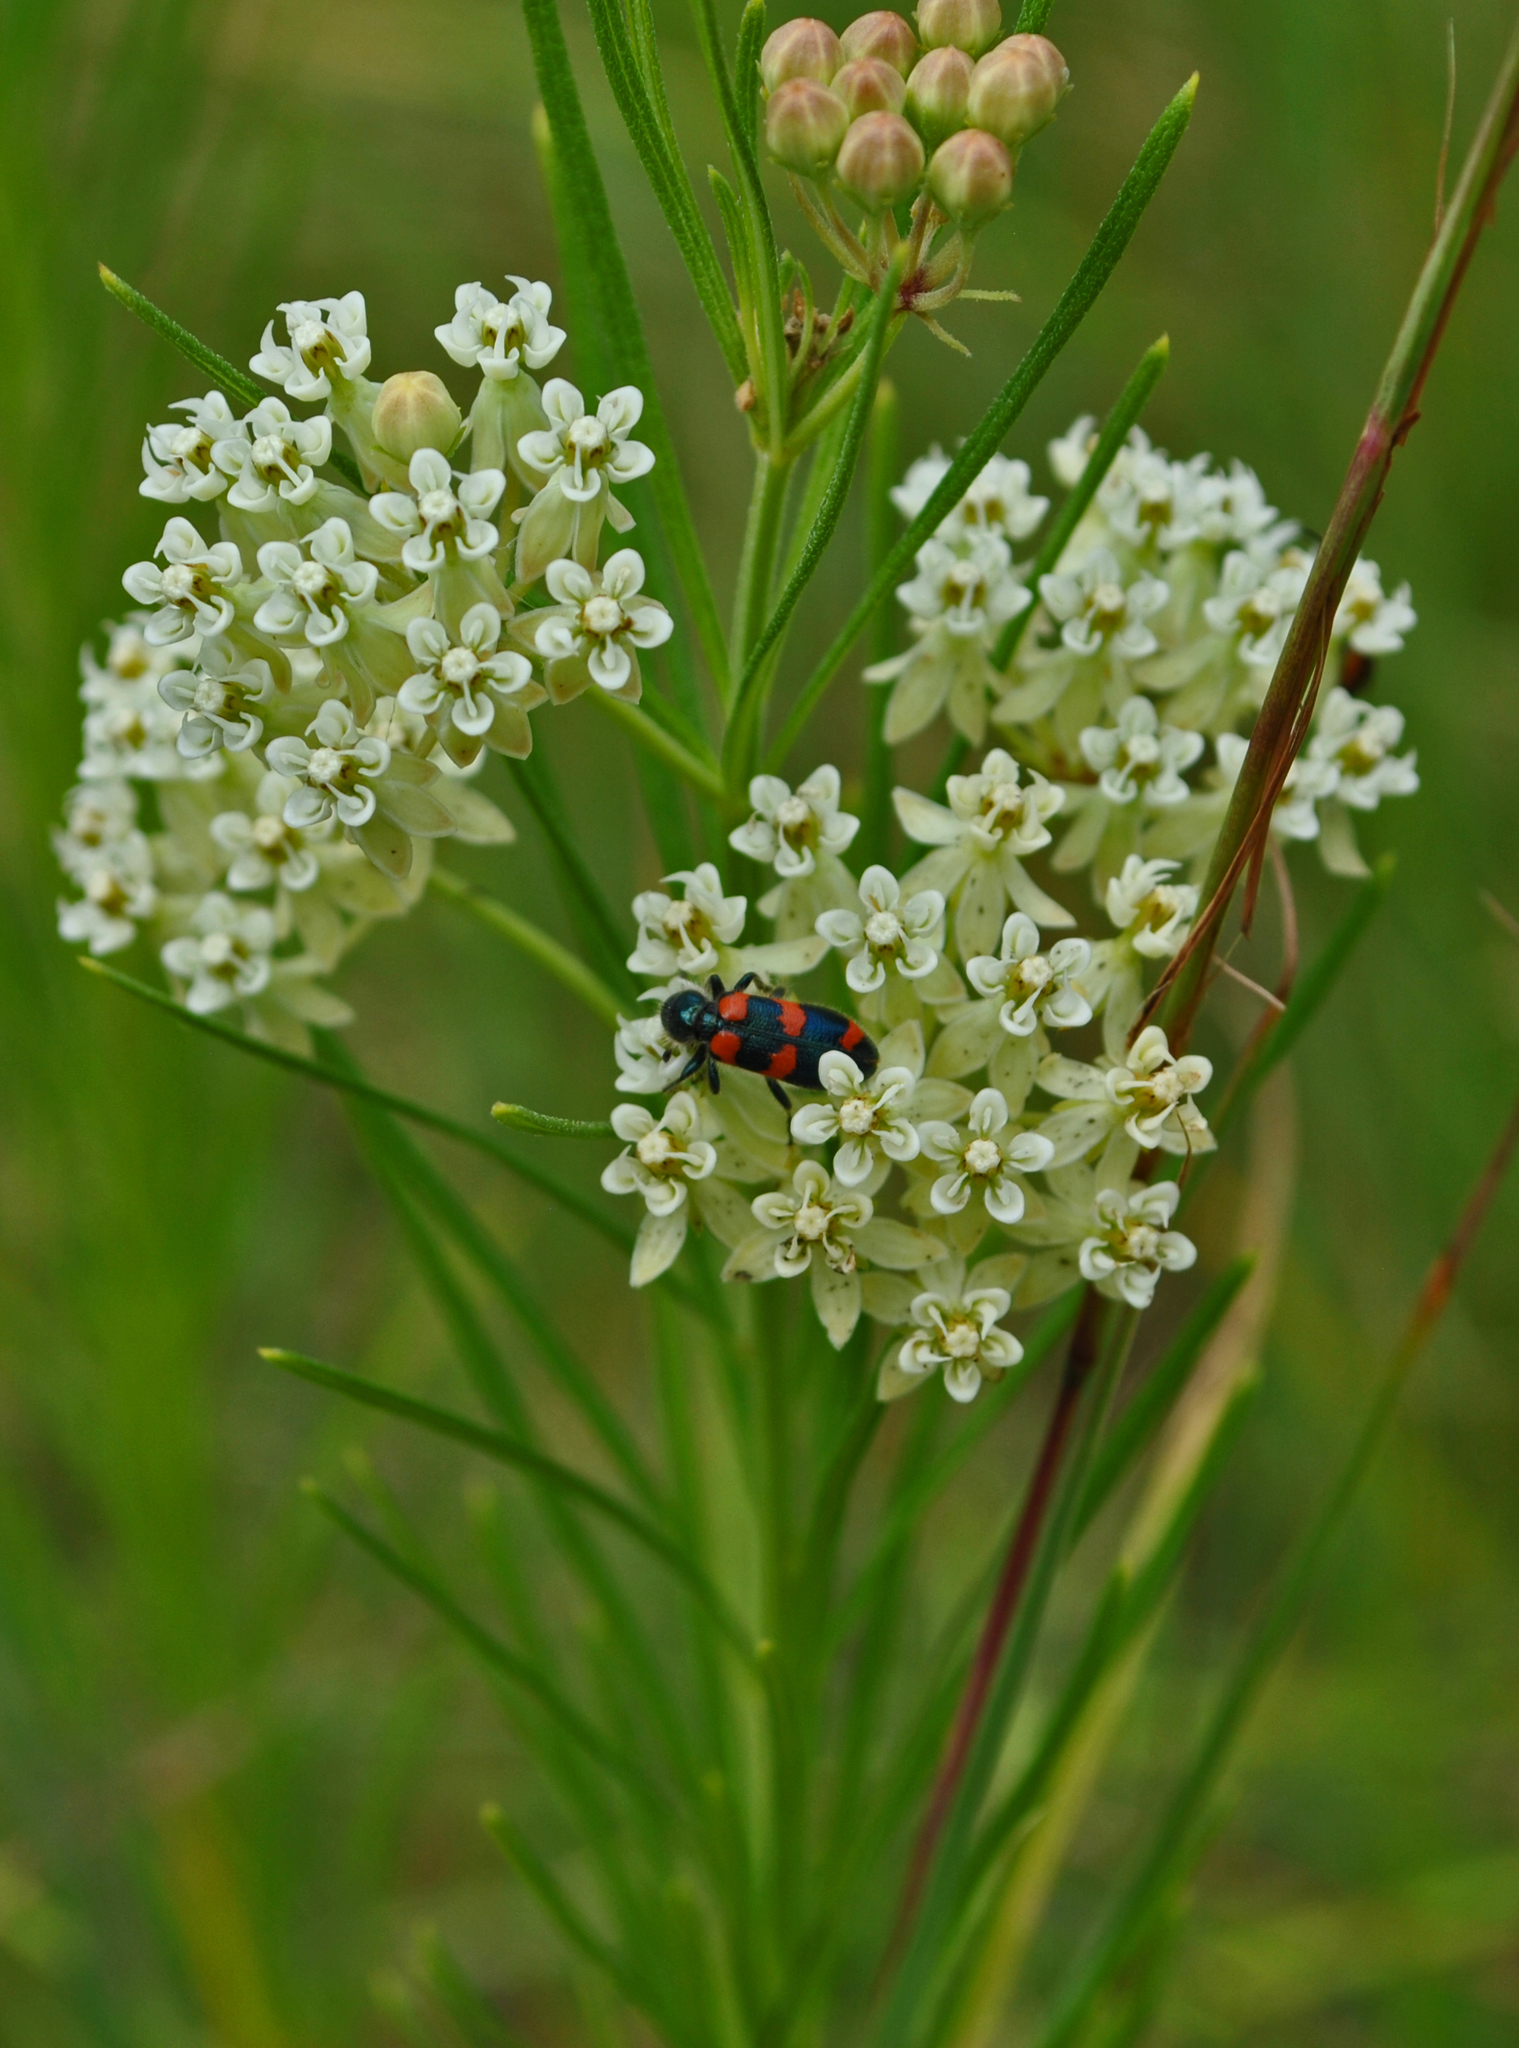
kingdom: Plantae
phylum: Tracheophyta
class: Magnoliopsida
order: Gentianales
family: Apocynaceae
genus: Asclepias
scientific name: Asclepias verticillata
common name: Eastern whorled milkweed
